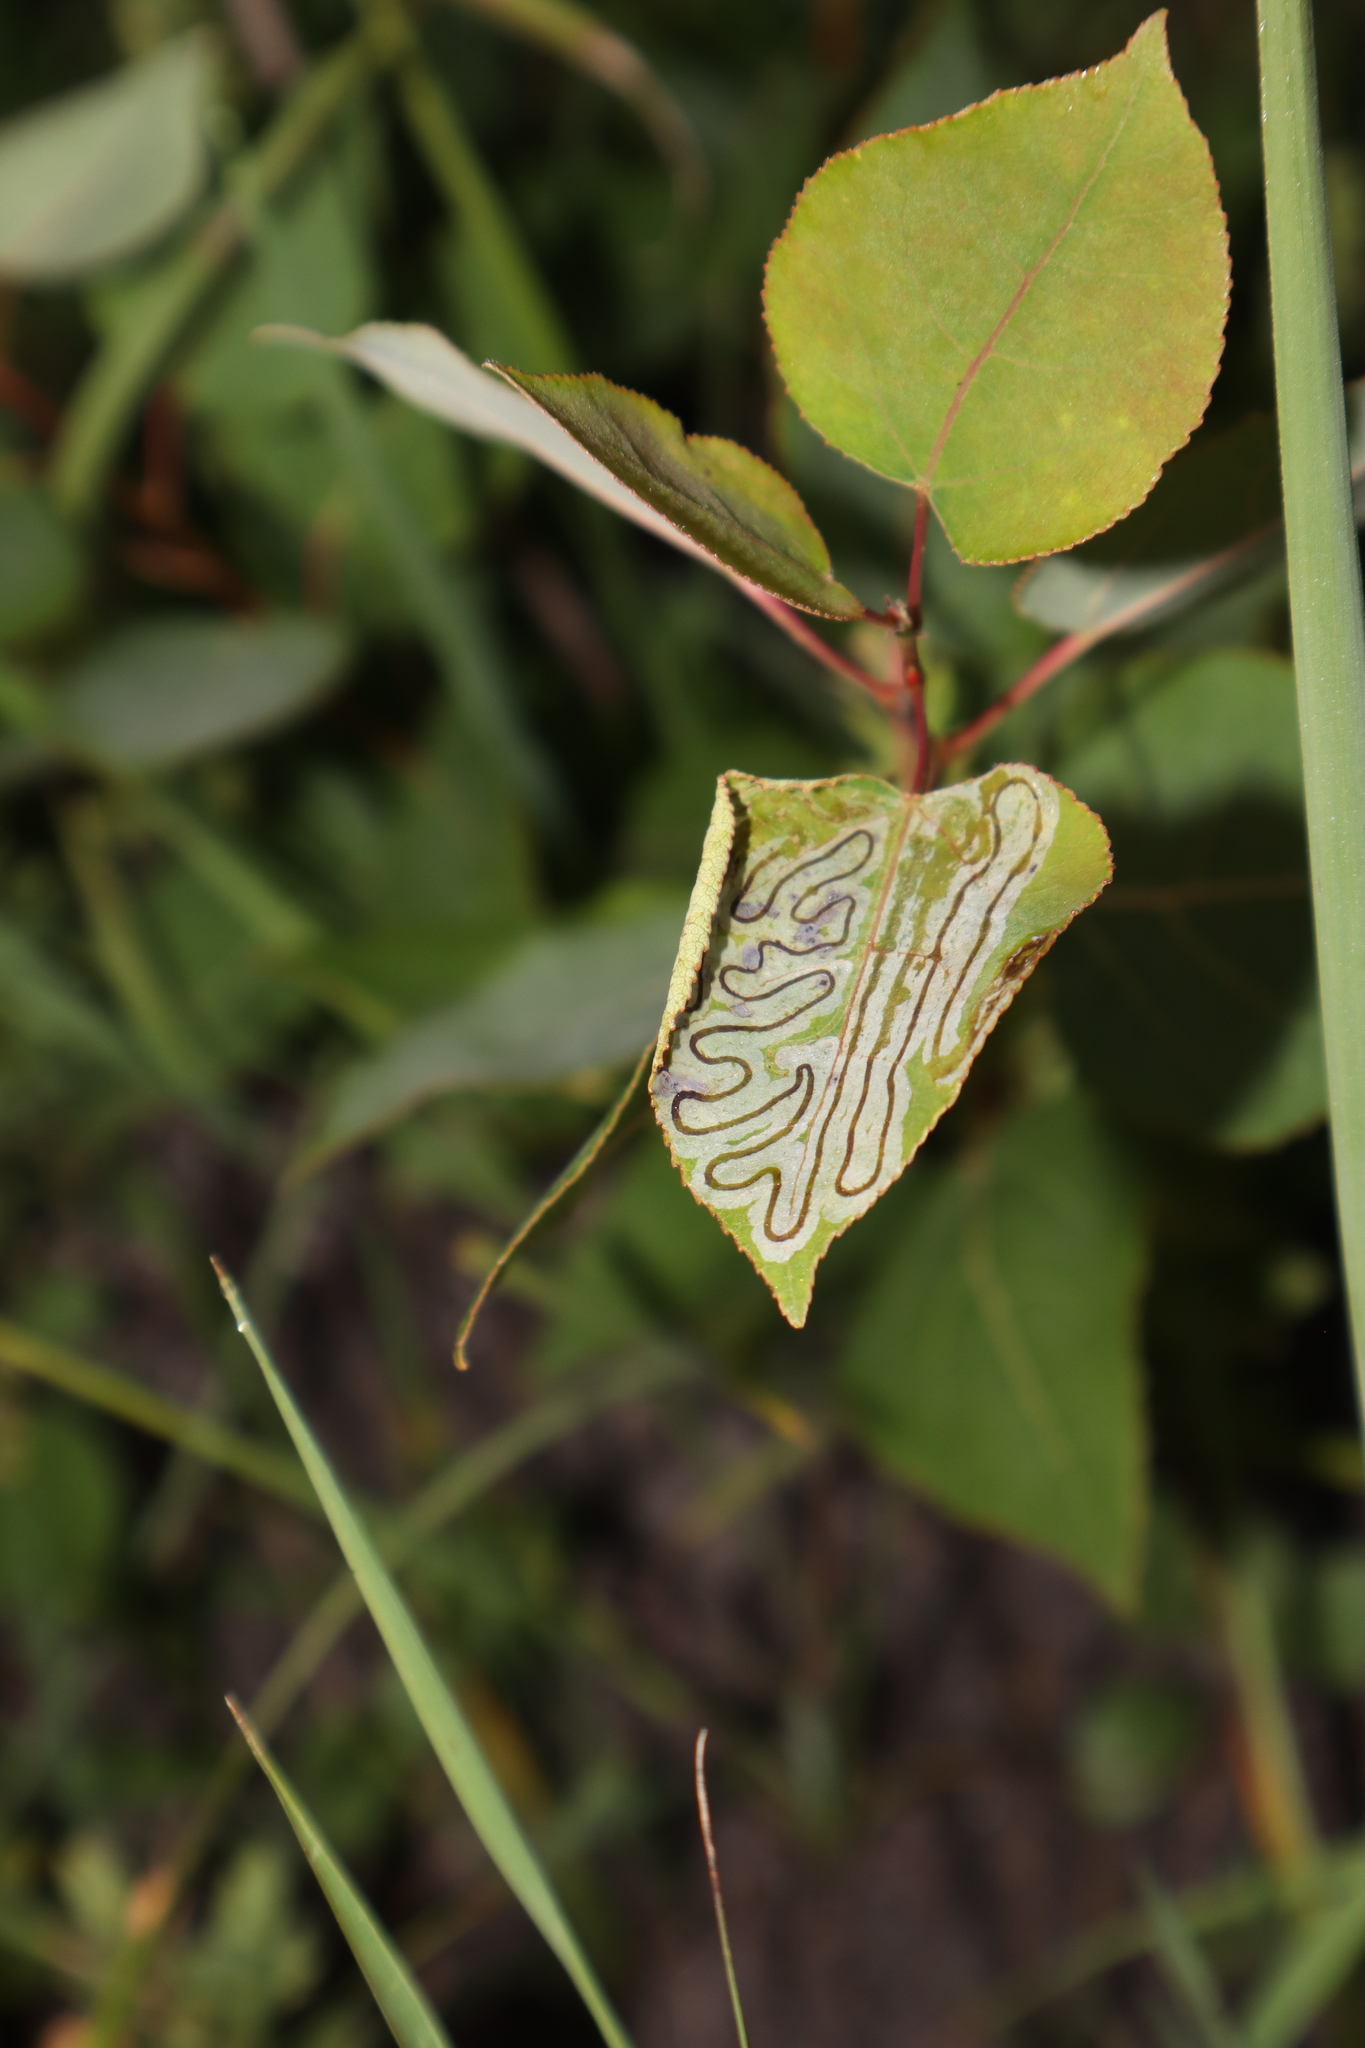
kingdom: Animalia
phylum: Arthropoda
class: Insecta
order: Lepidoptera
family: Gracillariidae
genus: Phyllocnistis
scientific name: Phyllocnistis populiella
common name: Aspen serpentine leafminer moth
